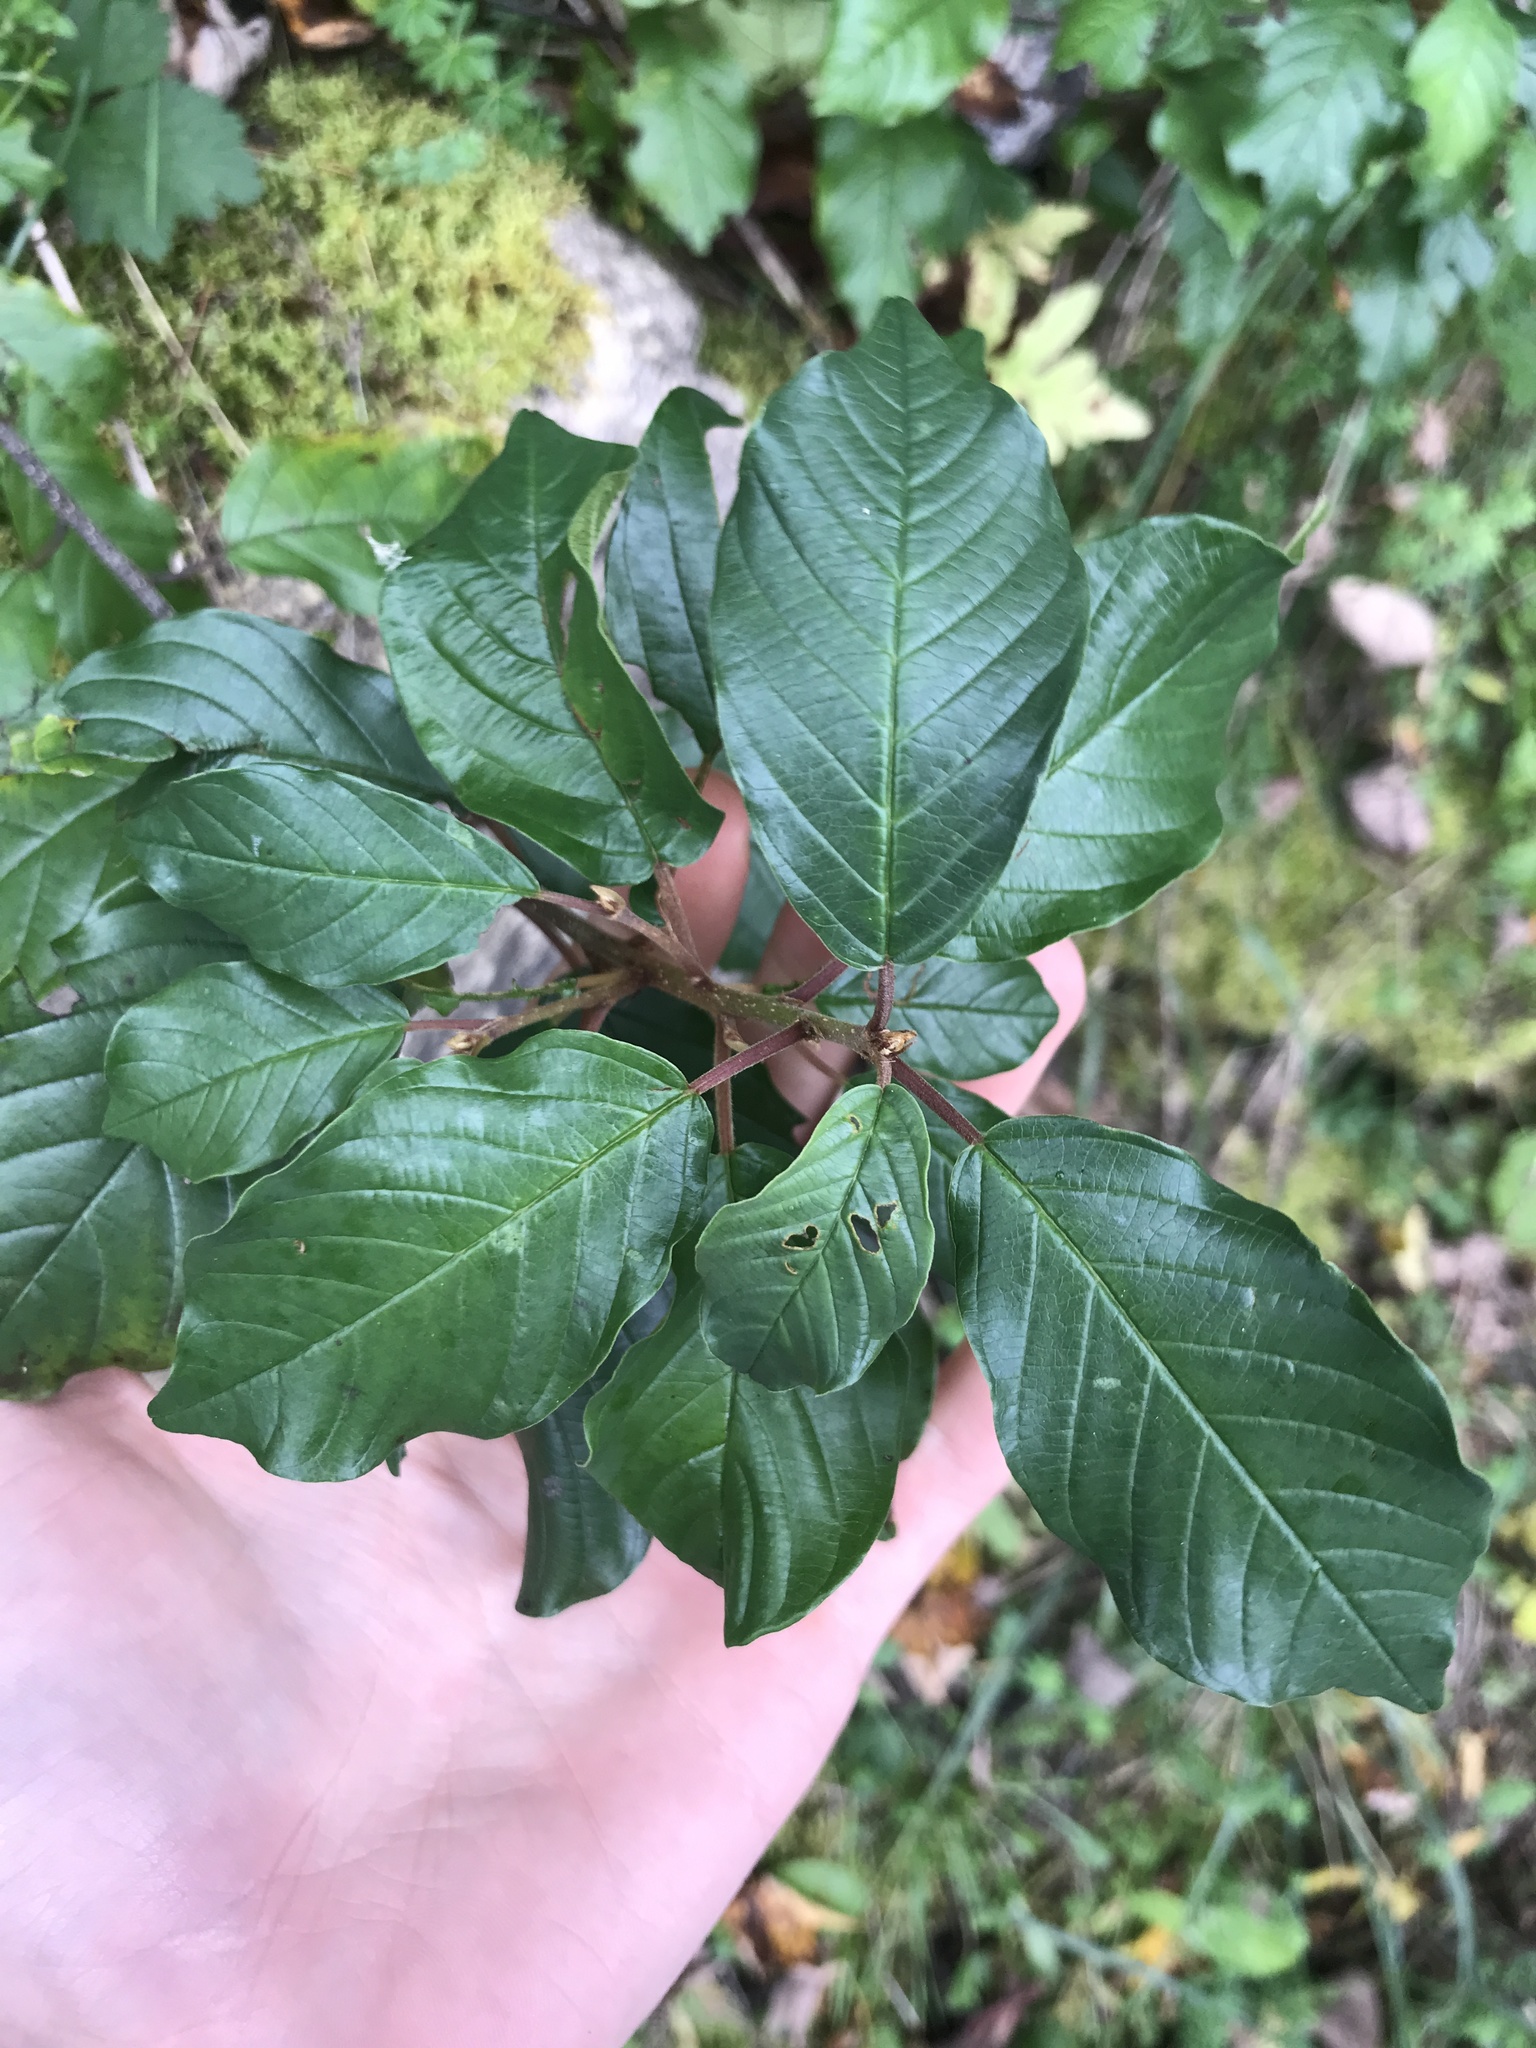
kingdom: Plantae
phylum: Tracheophyta
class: Magnoliopsida
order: Rosales
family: Rhamnaceae
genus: Frangula
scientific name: Frangula alnus
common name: Alder buckthorn
